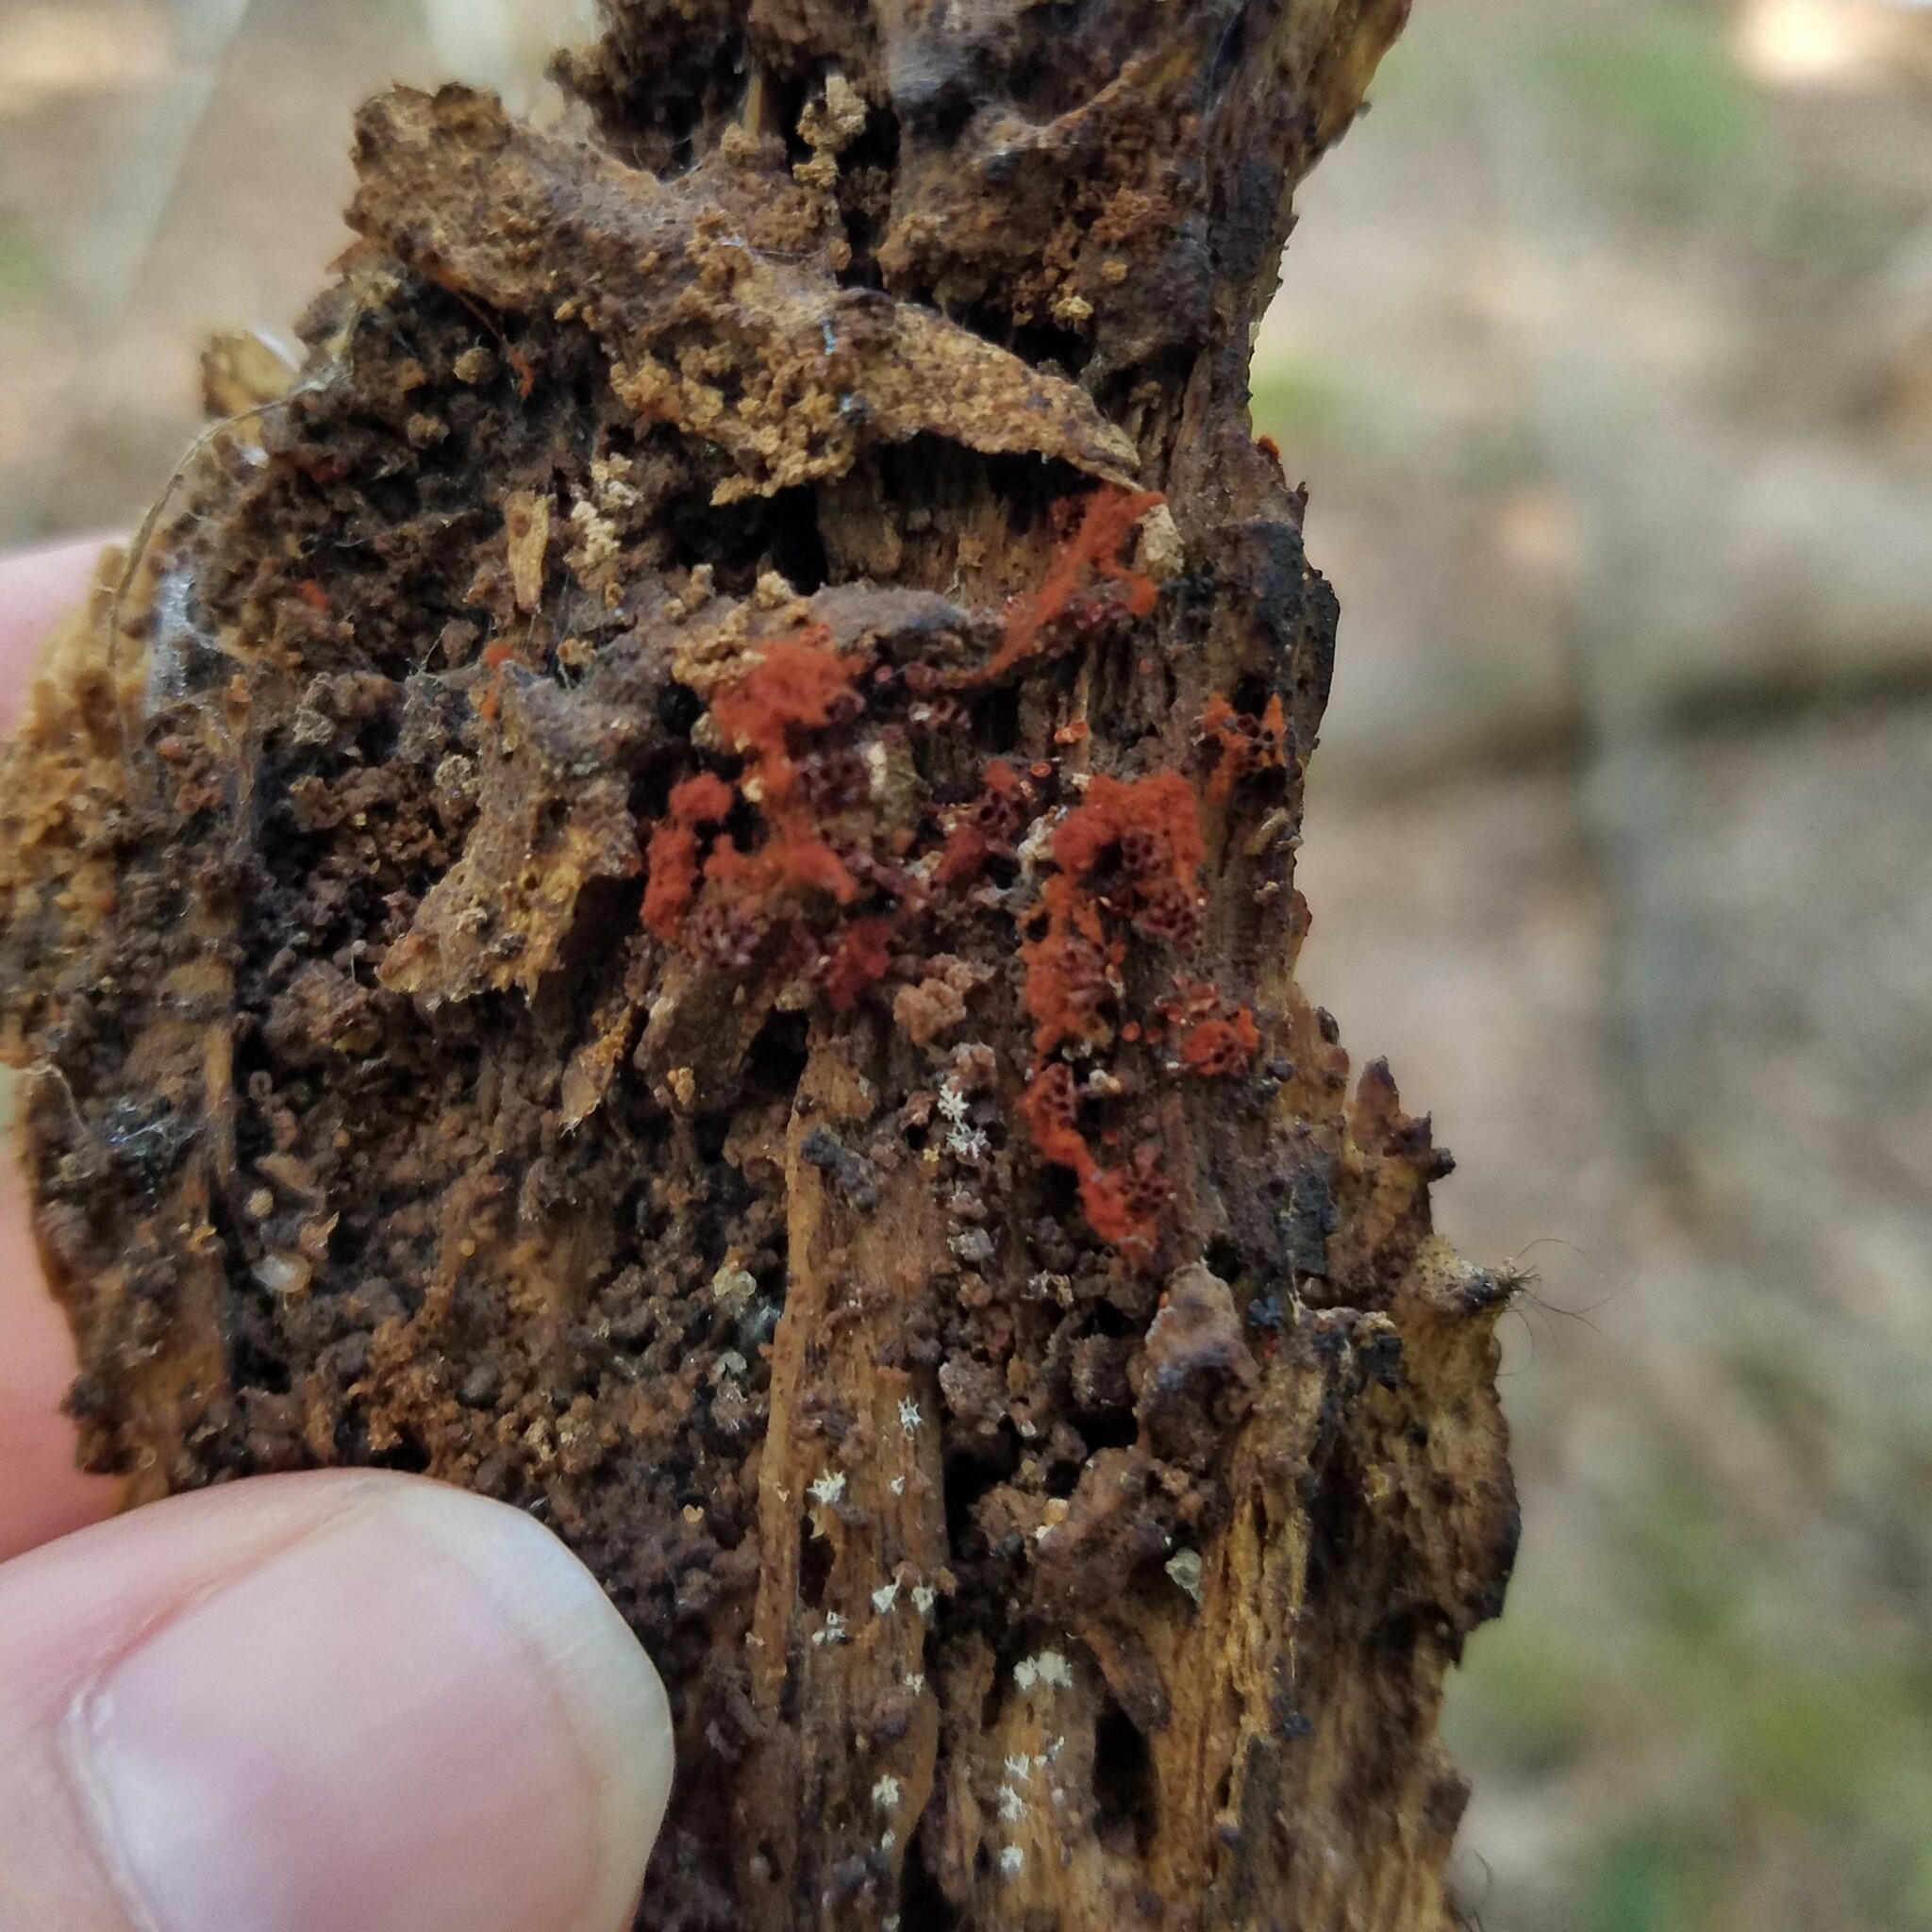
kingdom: Protozoa
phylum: Mycetozoa
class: Myxomycetes
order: Trichiales
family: Trichiaceae
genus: Metatrichia
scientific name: Metatrichia vesparia
